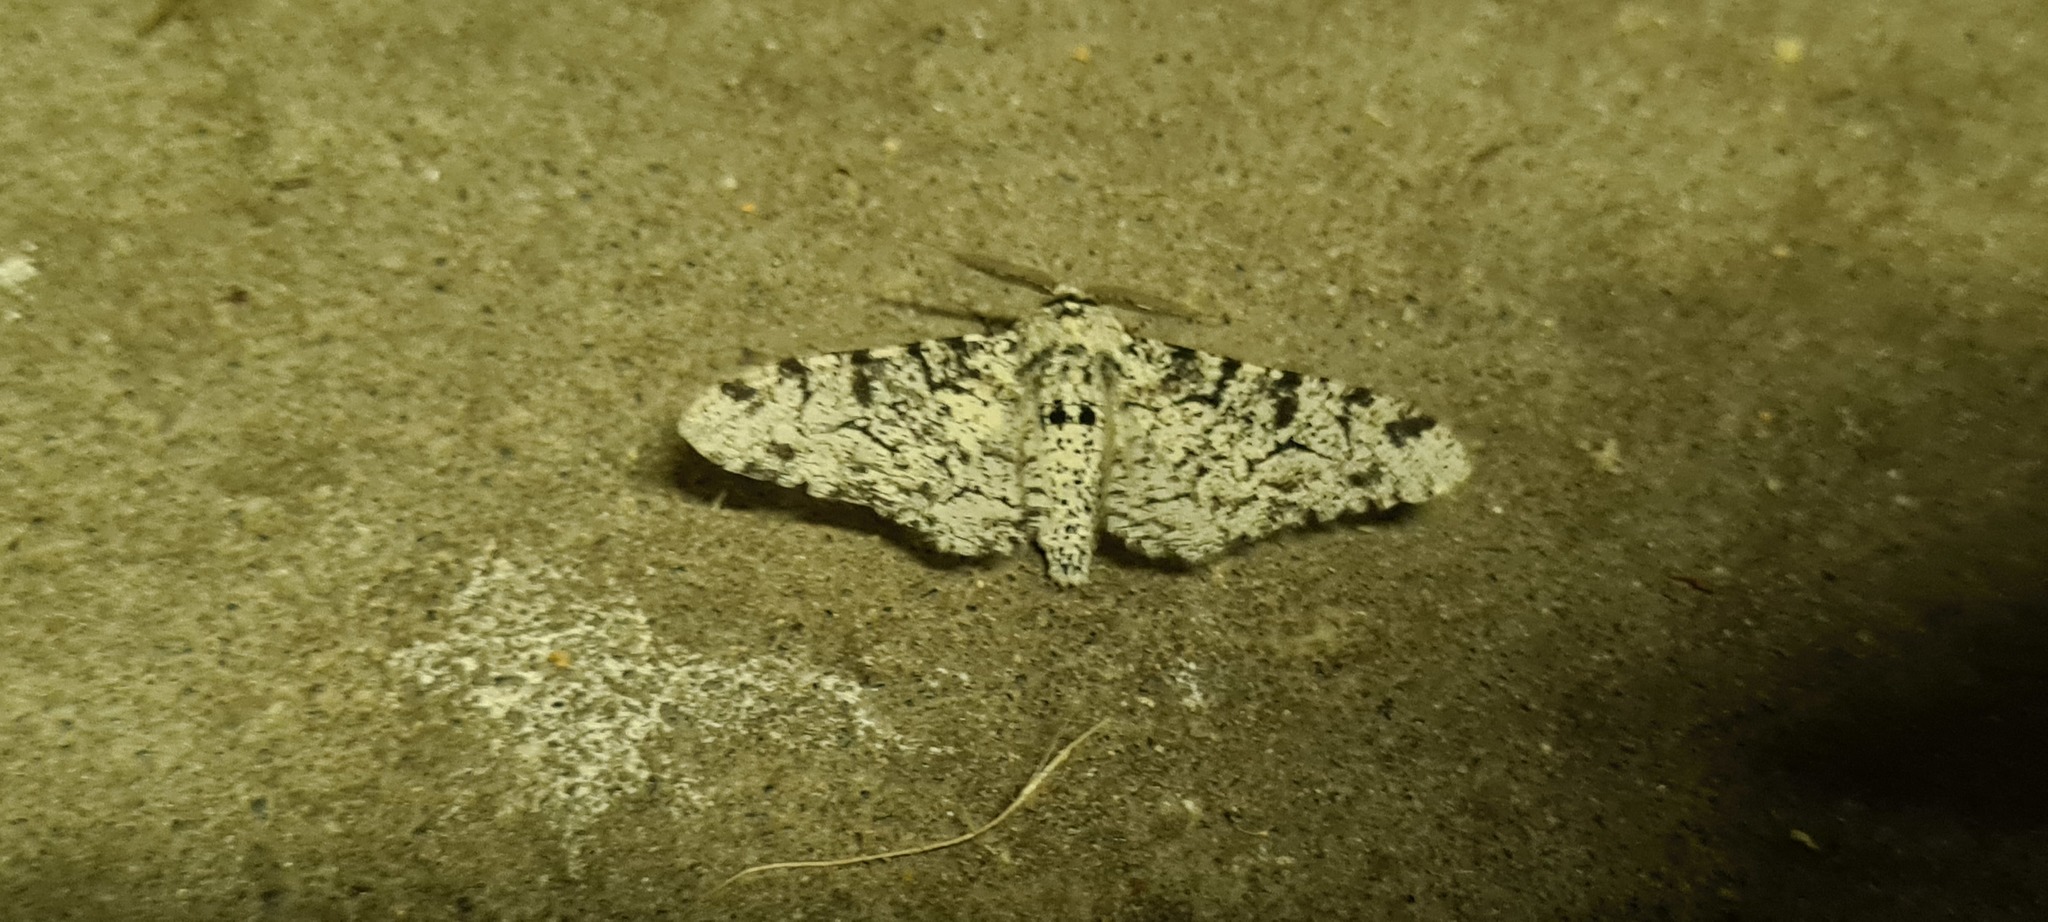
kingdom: Animalia
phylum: Arthropoda
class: Insecta
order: Lepidoptera
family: Geometridae
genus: Biston
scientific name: Biston betularia
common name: Peppered moth
